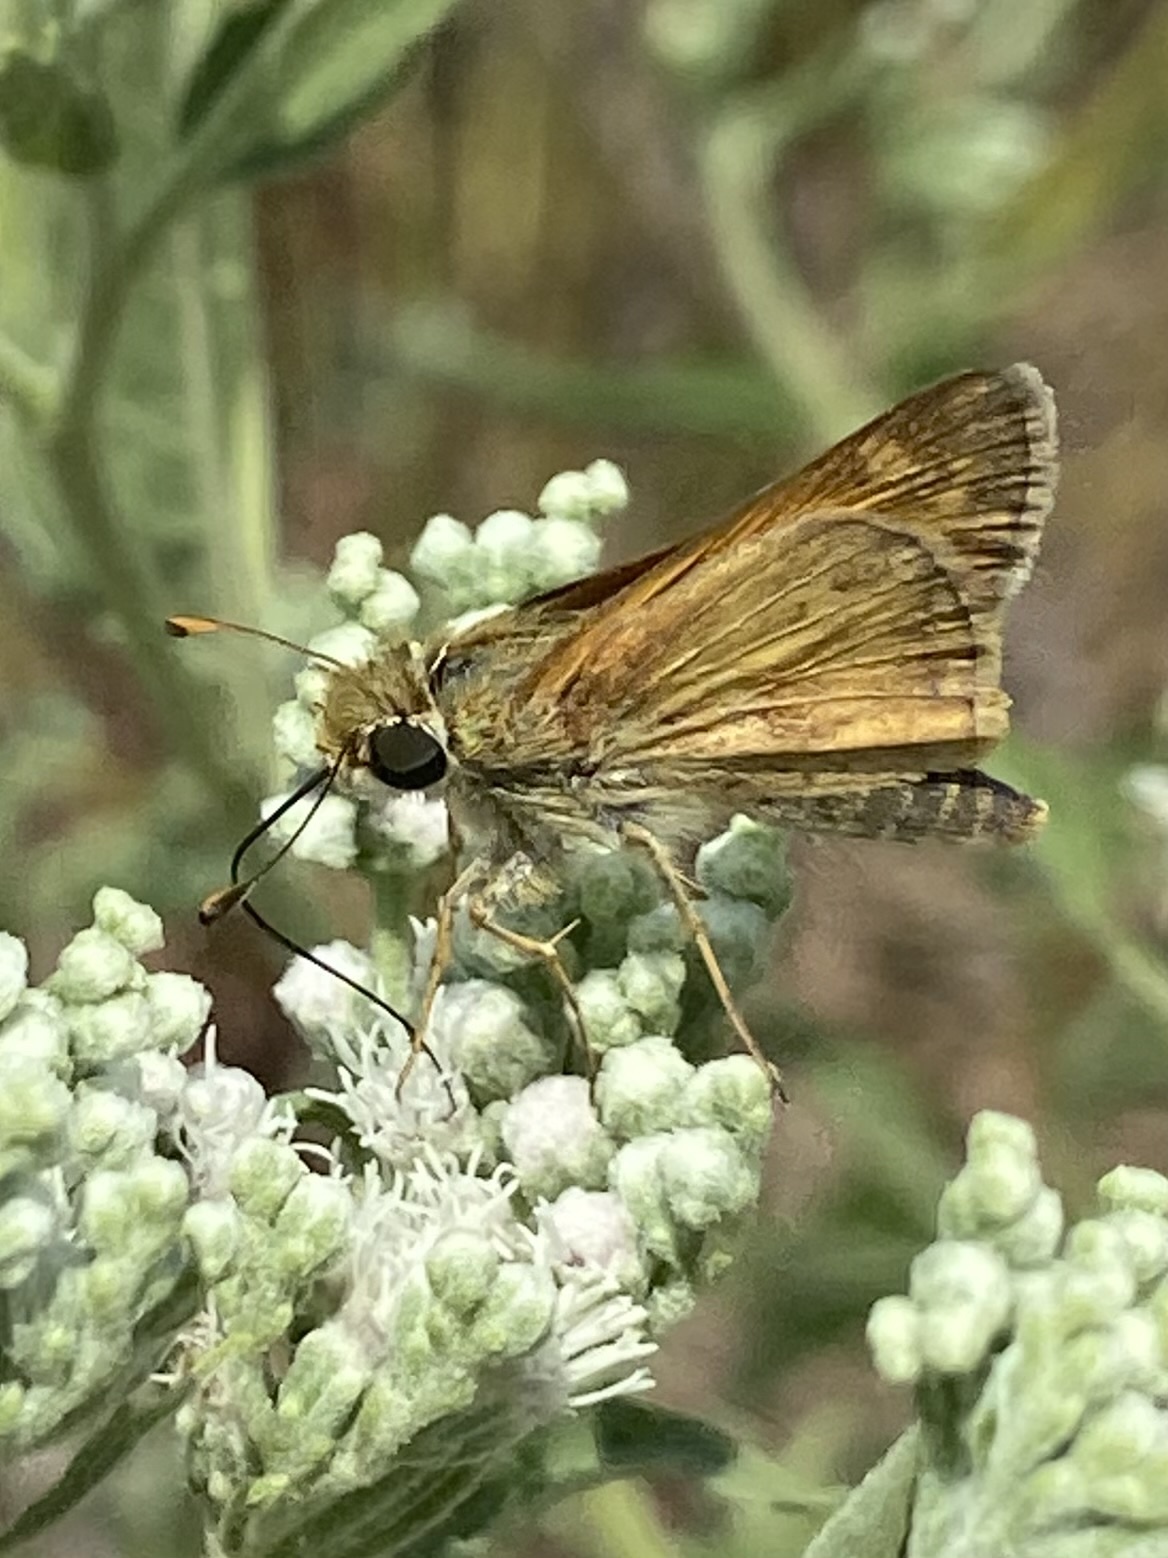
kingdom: Animalia
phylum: Arthropoda
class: Insecta
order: Lepidoptera
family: Hesperiidae
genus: Atalopedes
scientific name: Atalopedes
